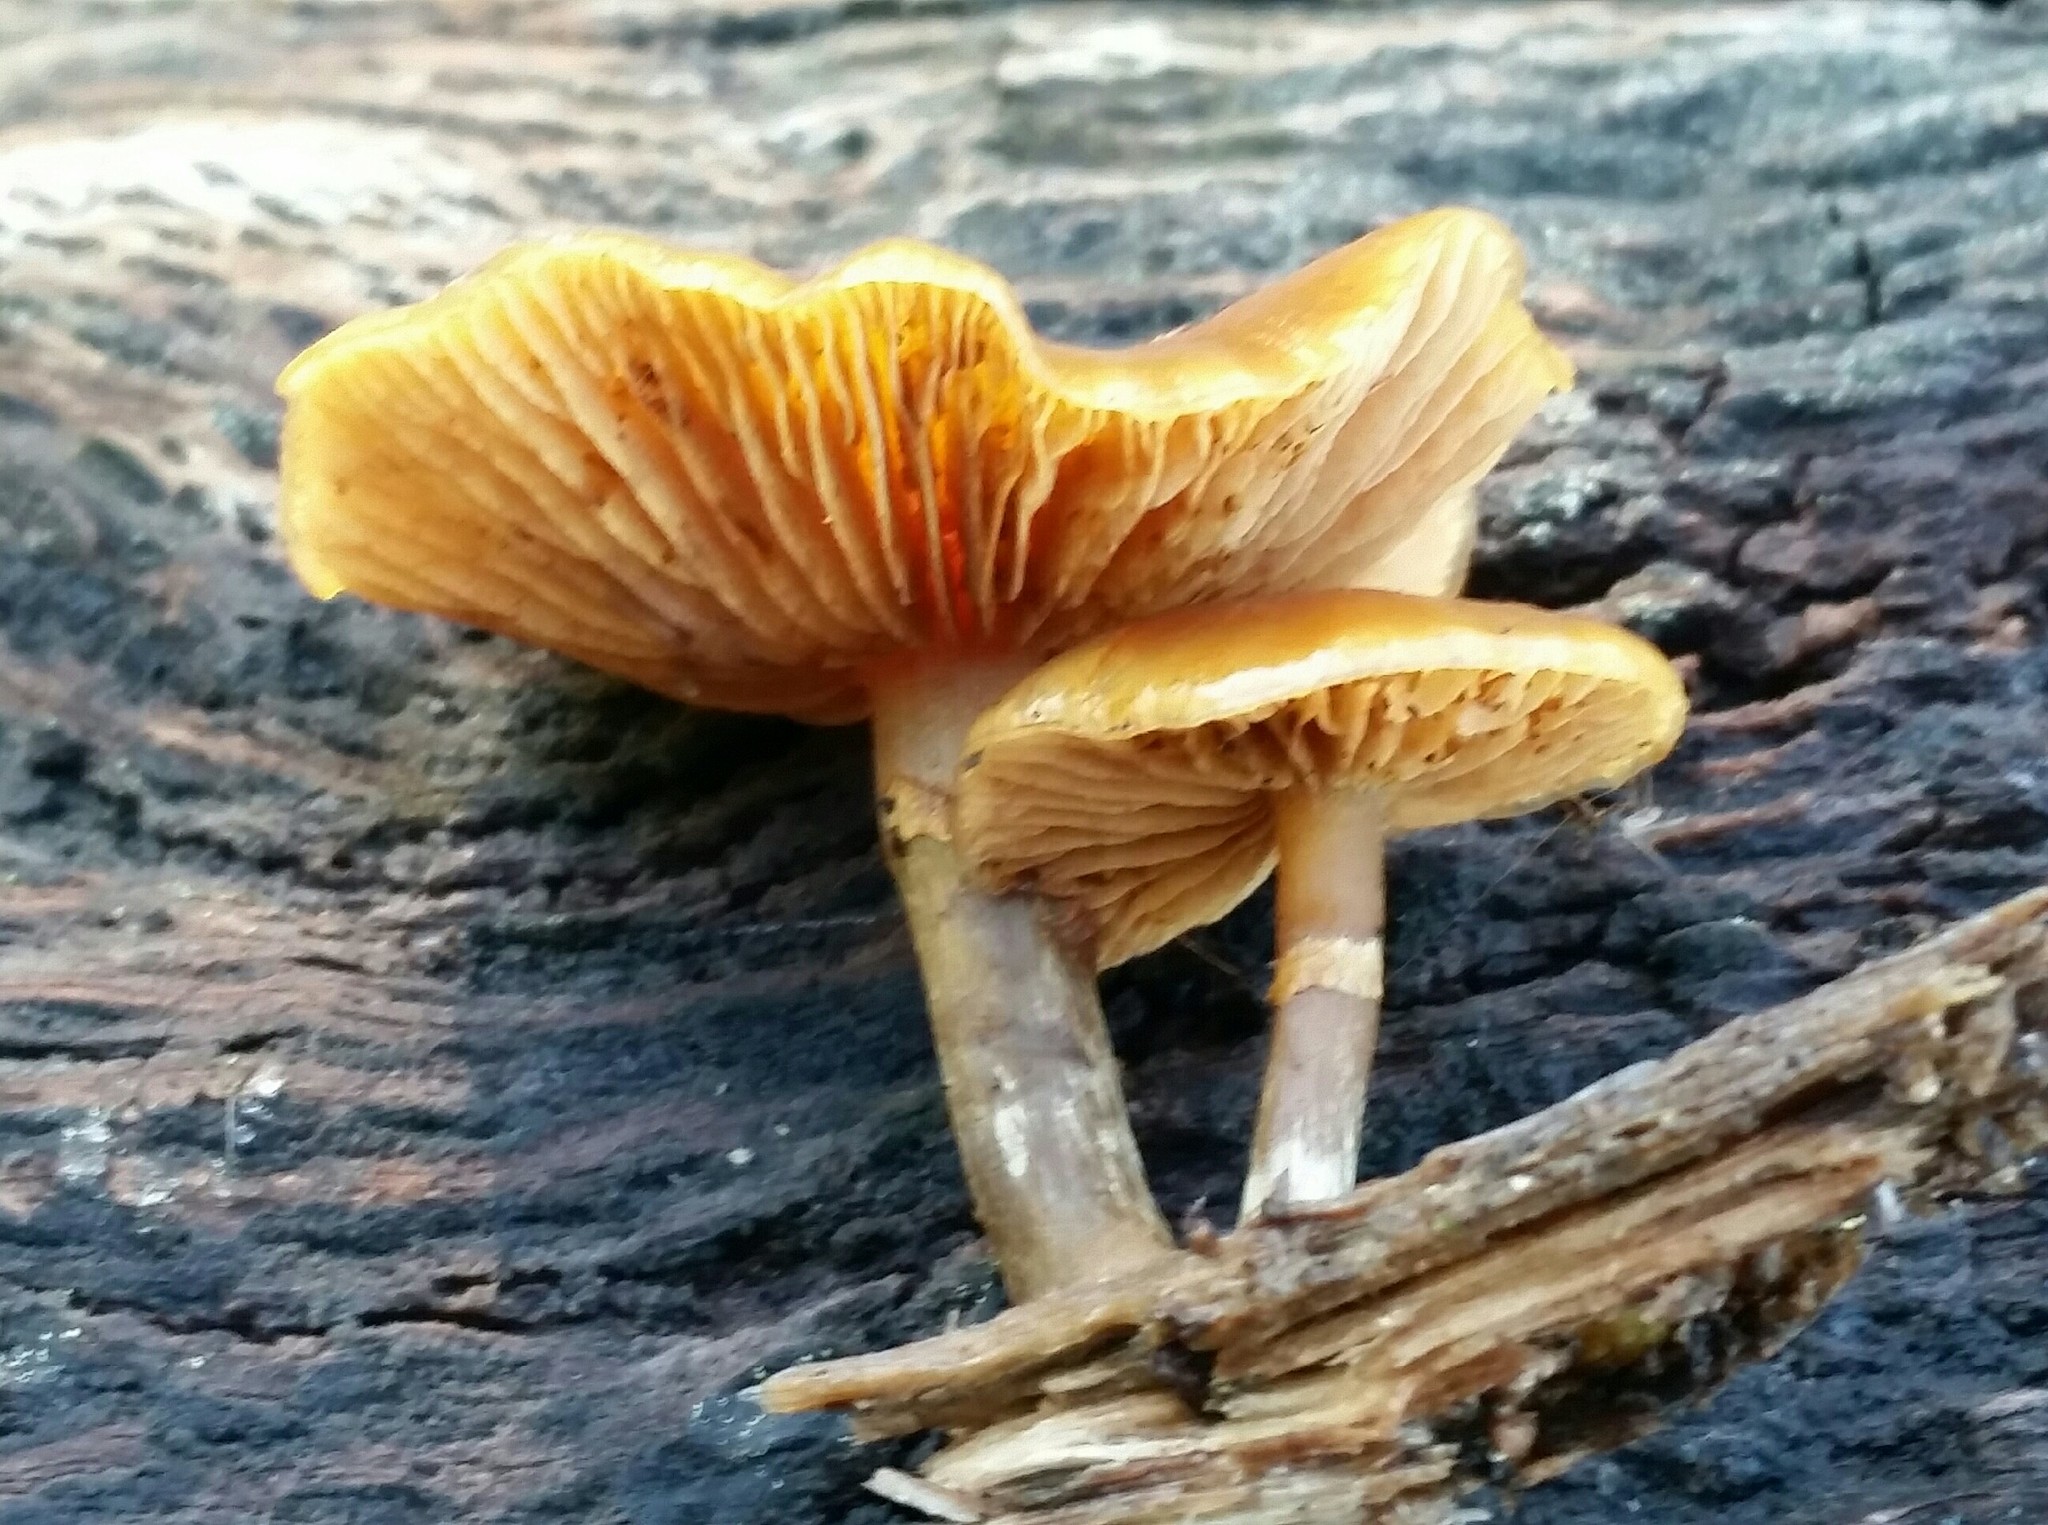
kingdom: Fungi
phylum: Basidiomycota
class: Agaricomycetes
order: Agaricales
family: Hymenogastraceae
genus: Galerina
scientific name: Galerina marginata
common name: Funeral bell
